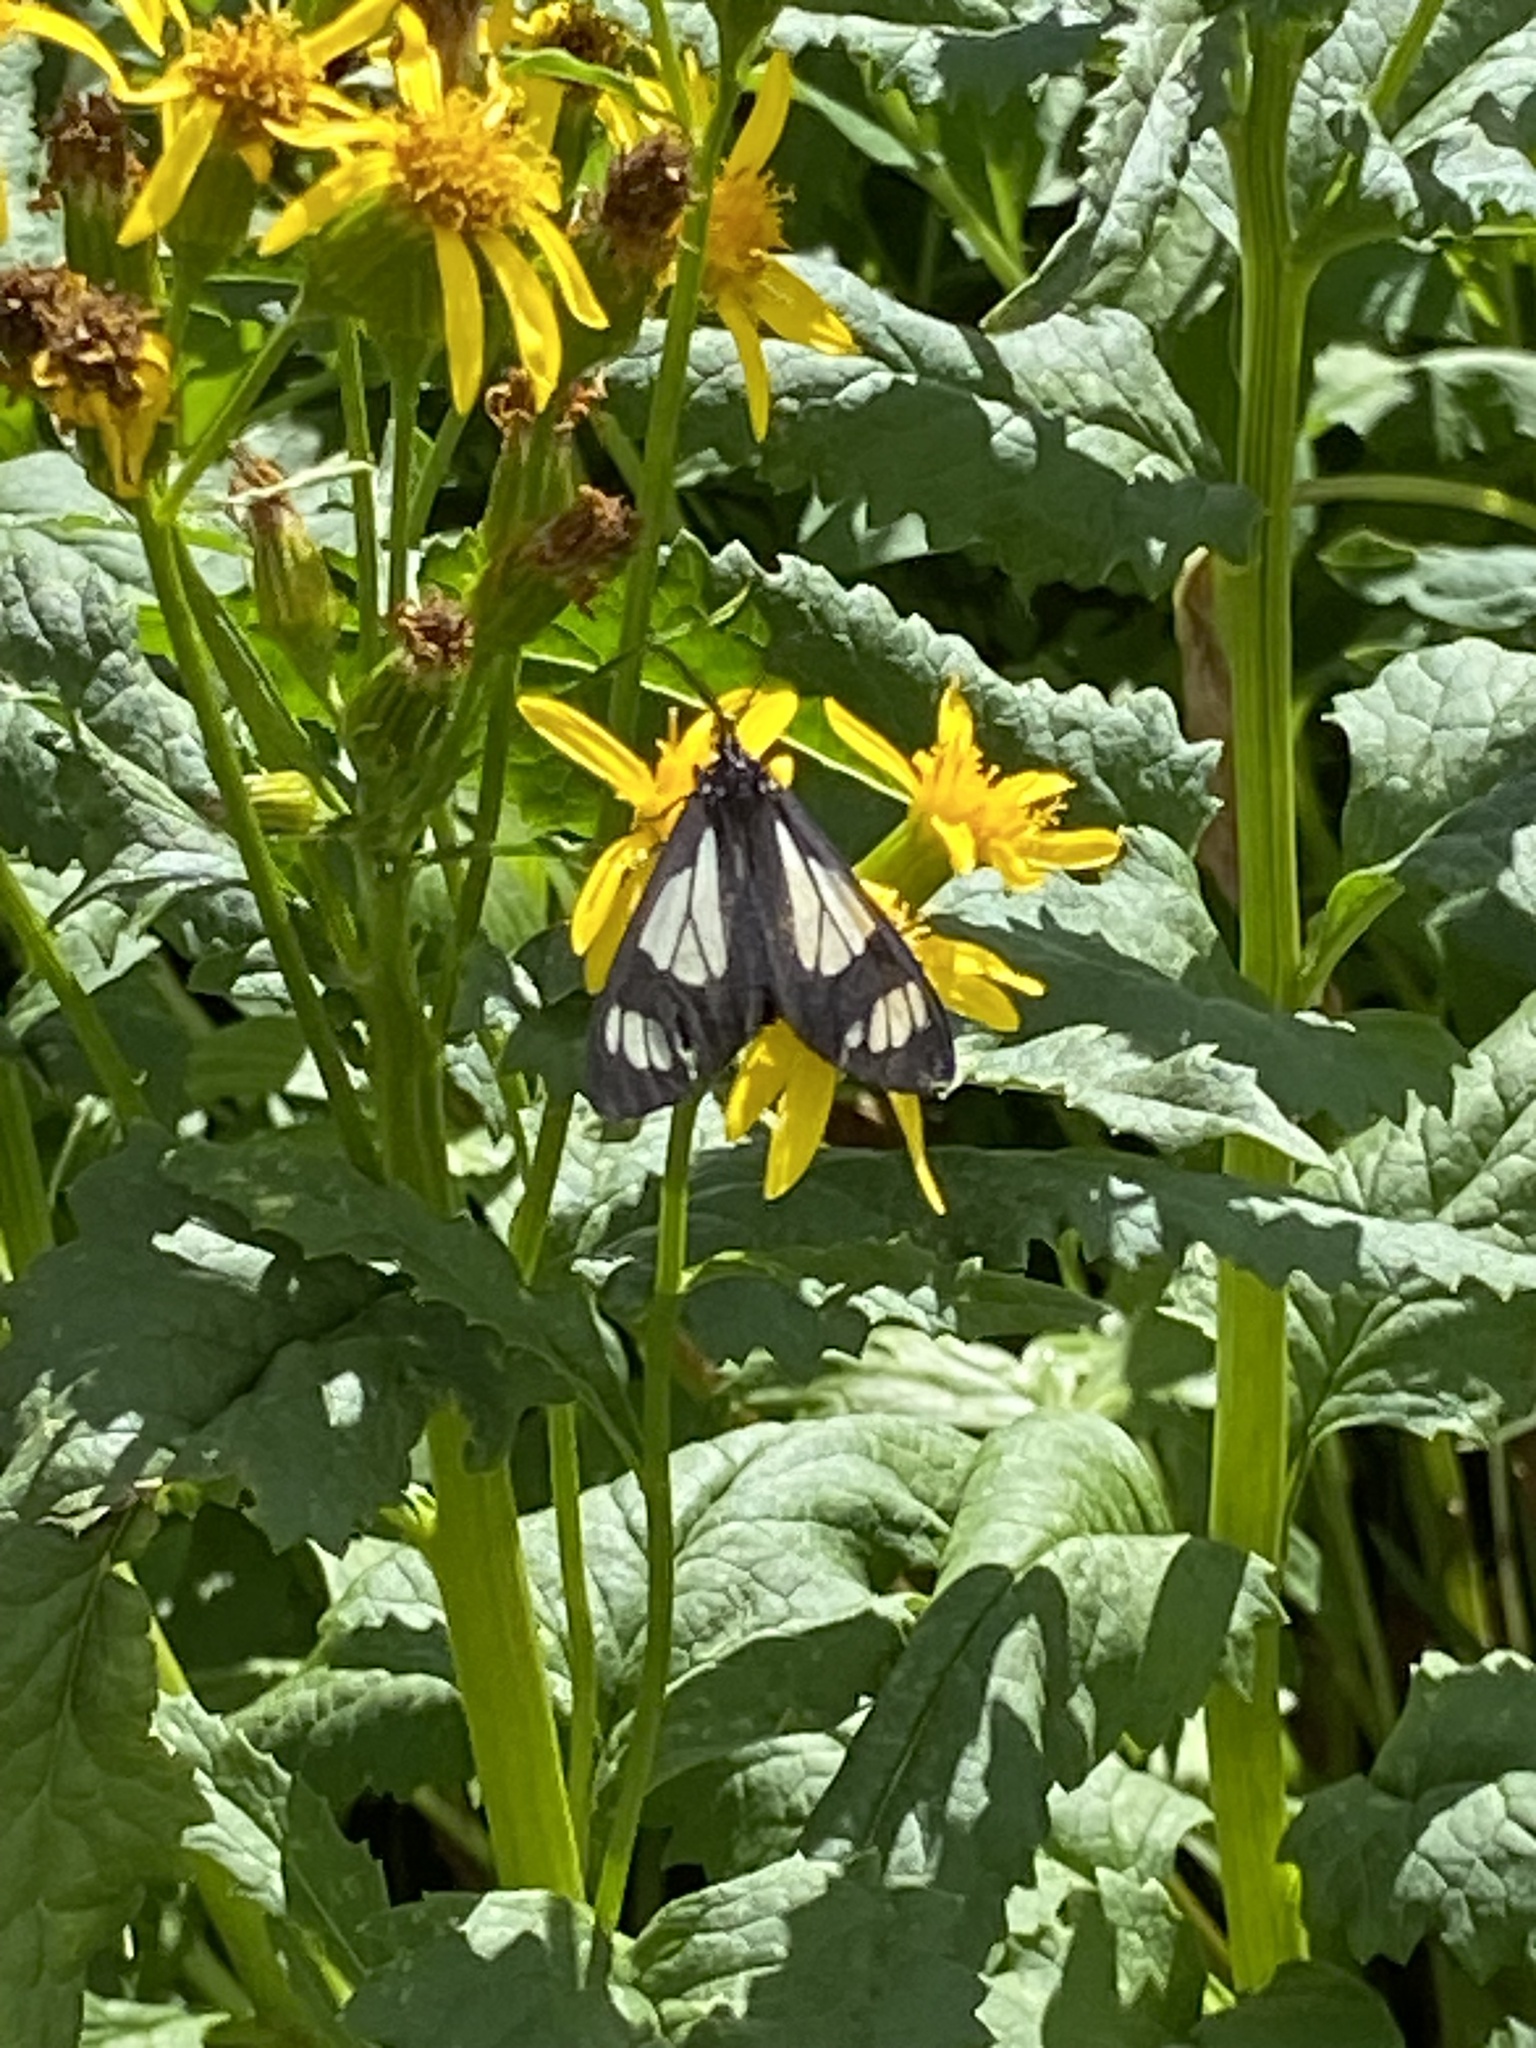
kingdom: Animalia
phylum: Arthropoda
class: Insecta
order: Lepidoptera
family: Erebidae
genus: Gnophaela
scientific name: Gnophaela vermiculata
